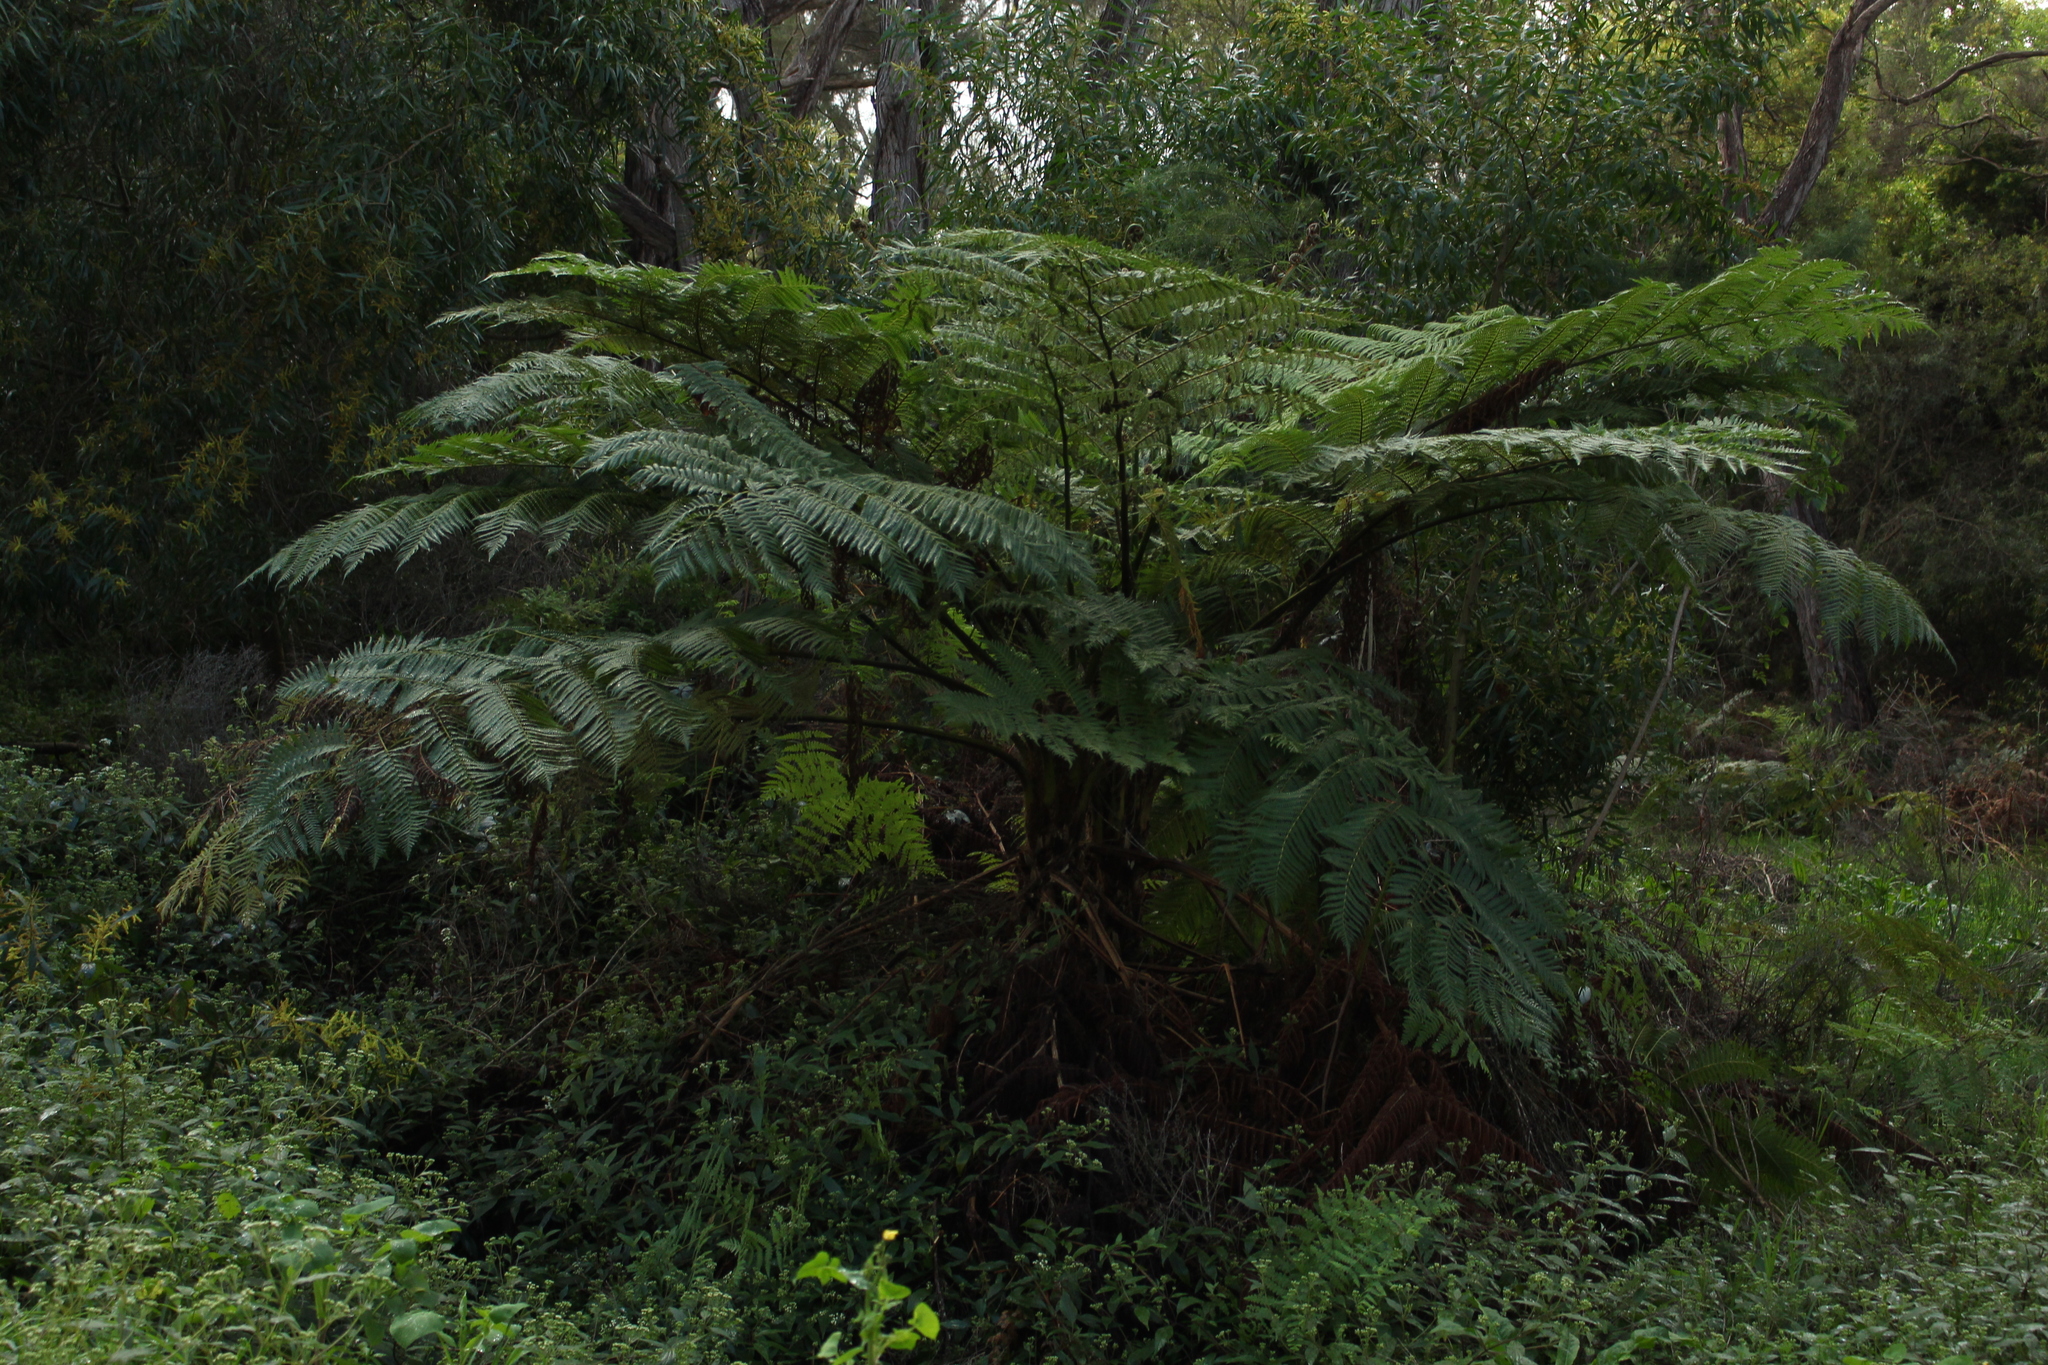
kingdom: Plantae
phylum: Tracheophyta
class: Polypodiopsida
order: Cyatheales
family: Cyatheaceae
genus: Sphaeropteris
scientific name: Sphaeropteris cooperi
